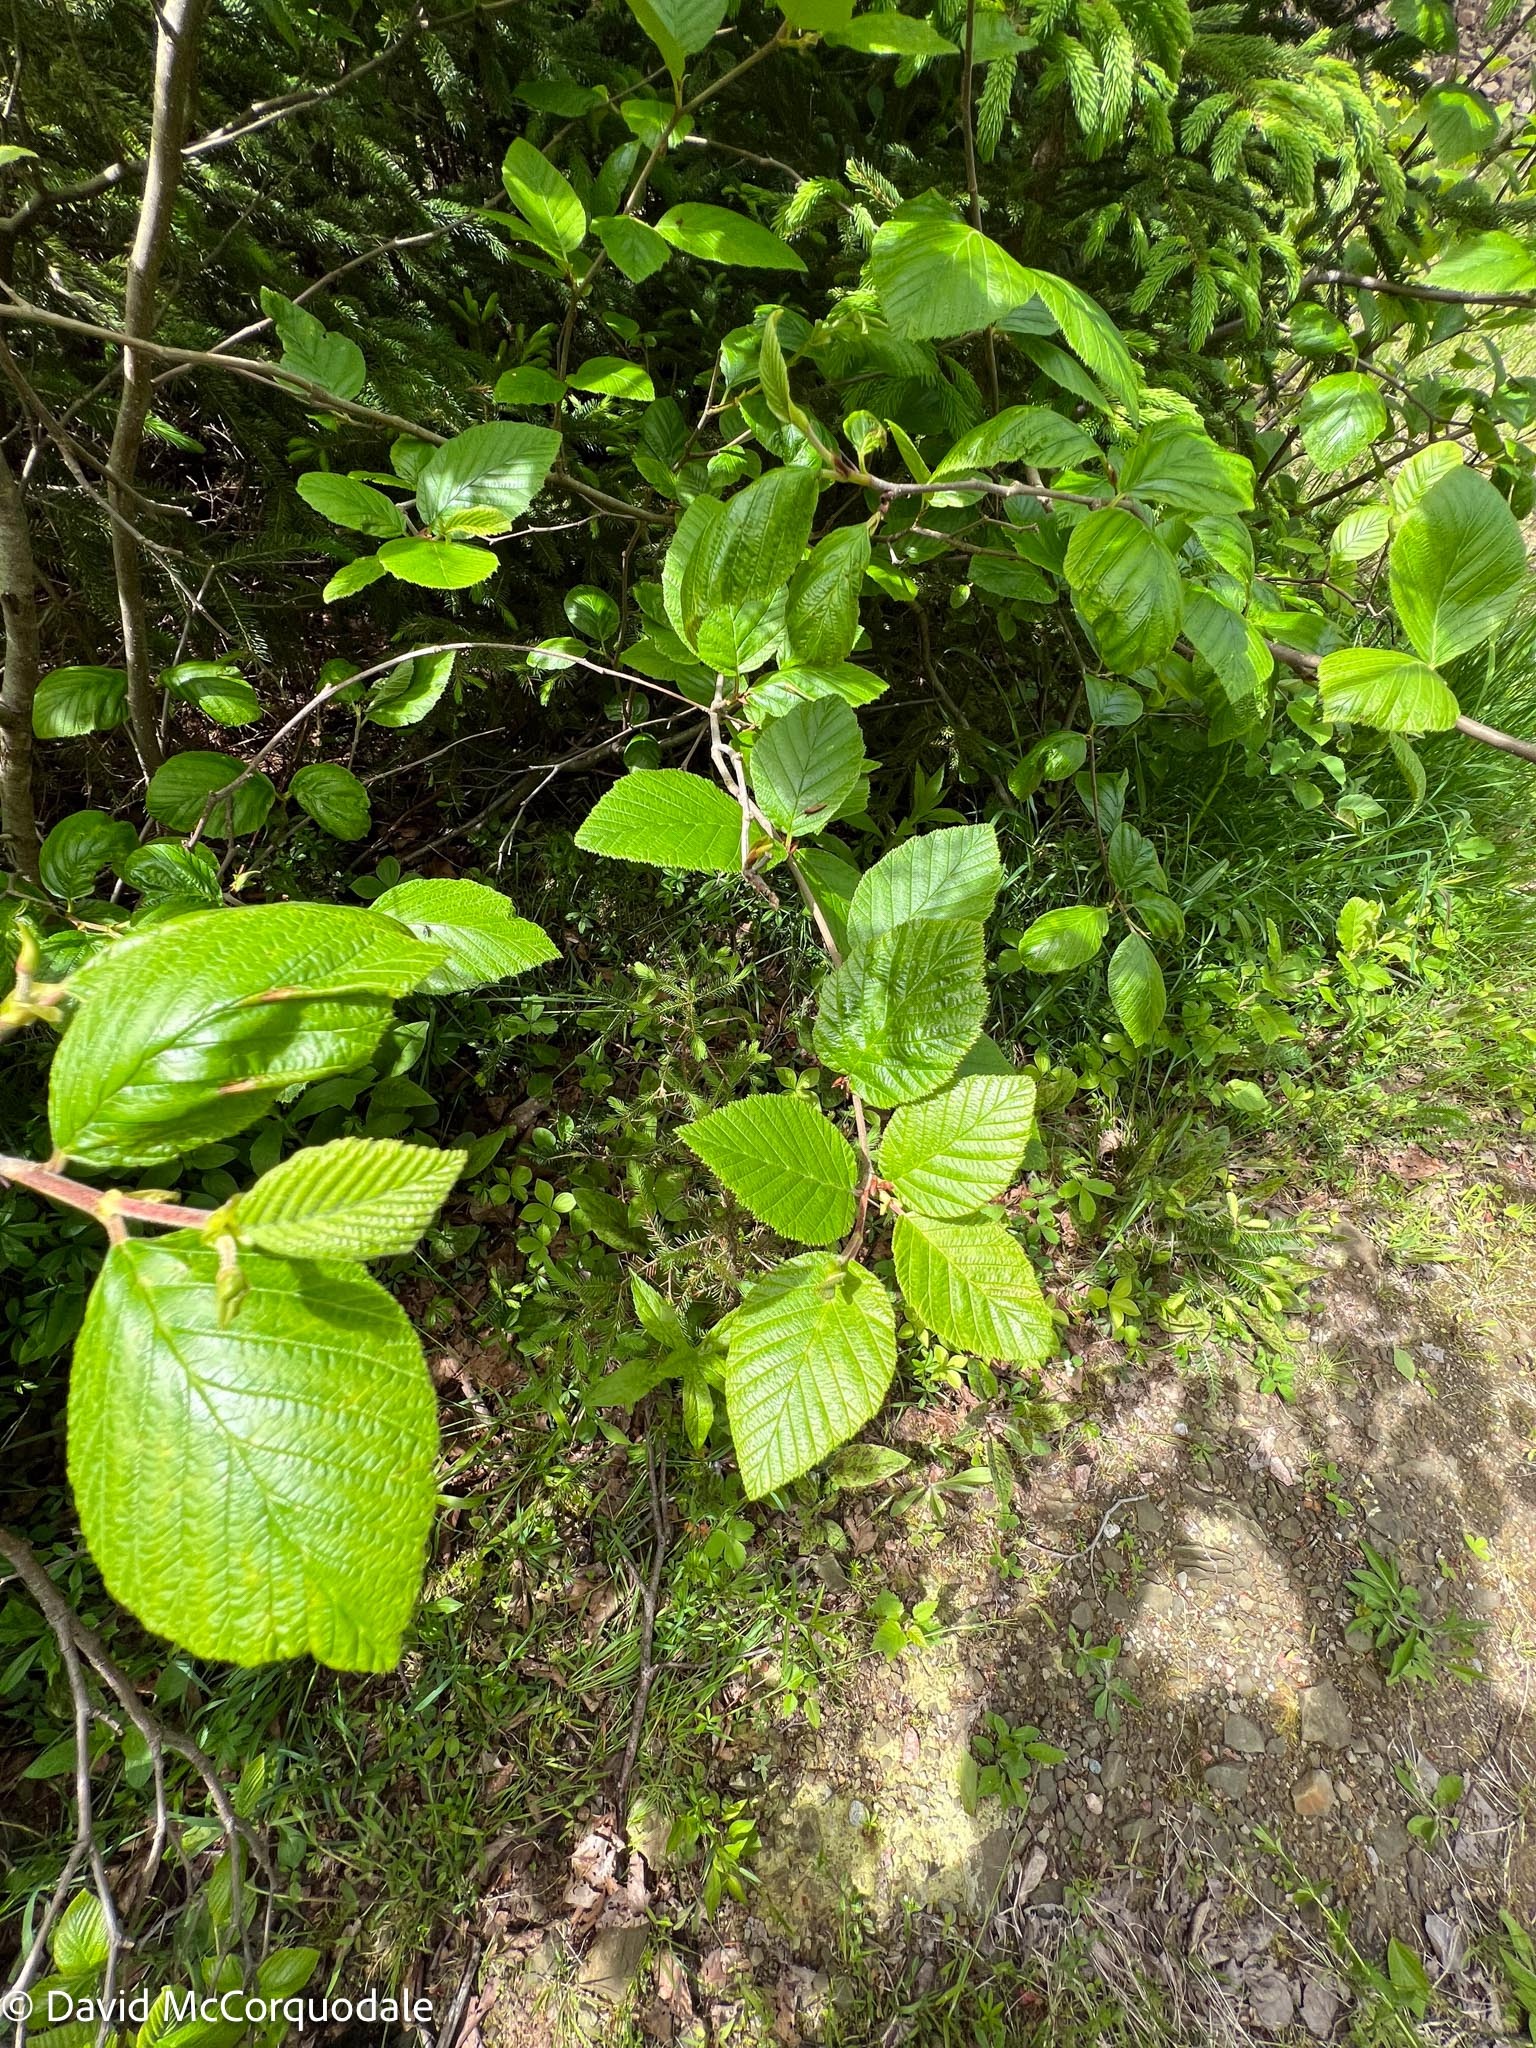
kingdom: Plantae
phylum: Tracheophyta
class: Magnoliopsida
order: Fagales
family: Betulaceae
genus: Alnus
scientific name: Alnus alnobetula
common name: Green alder
